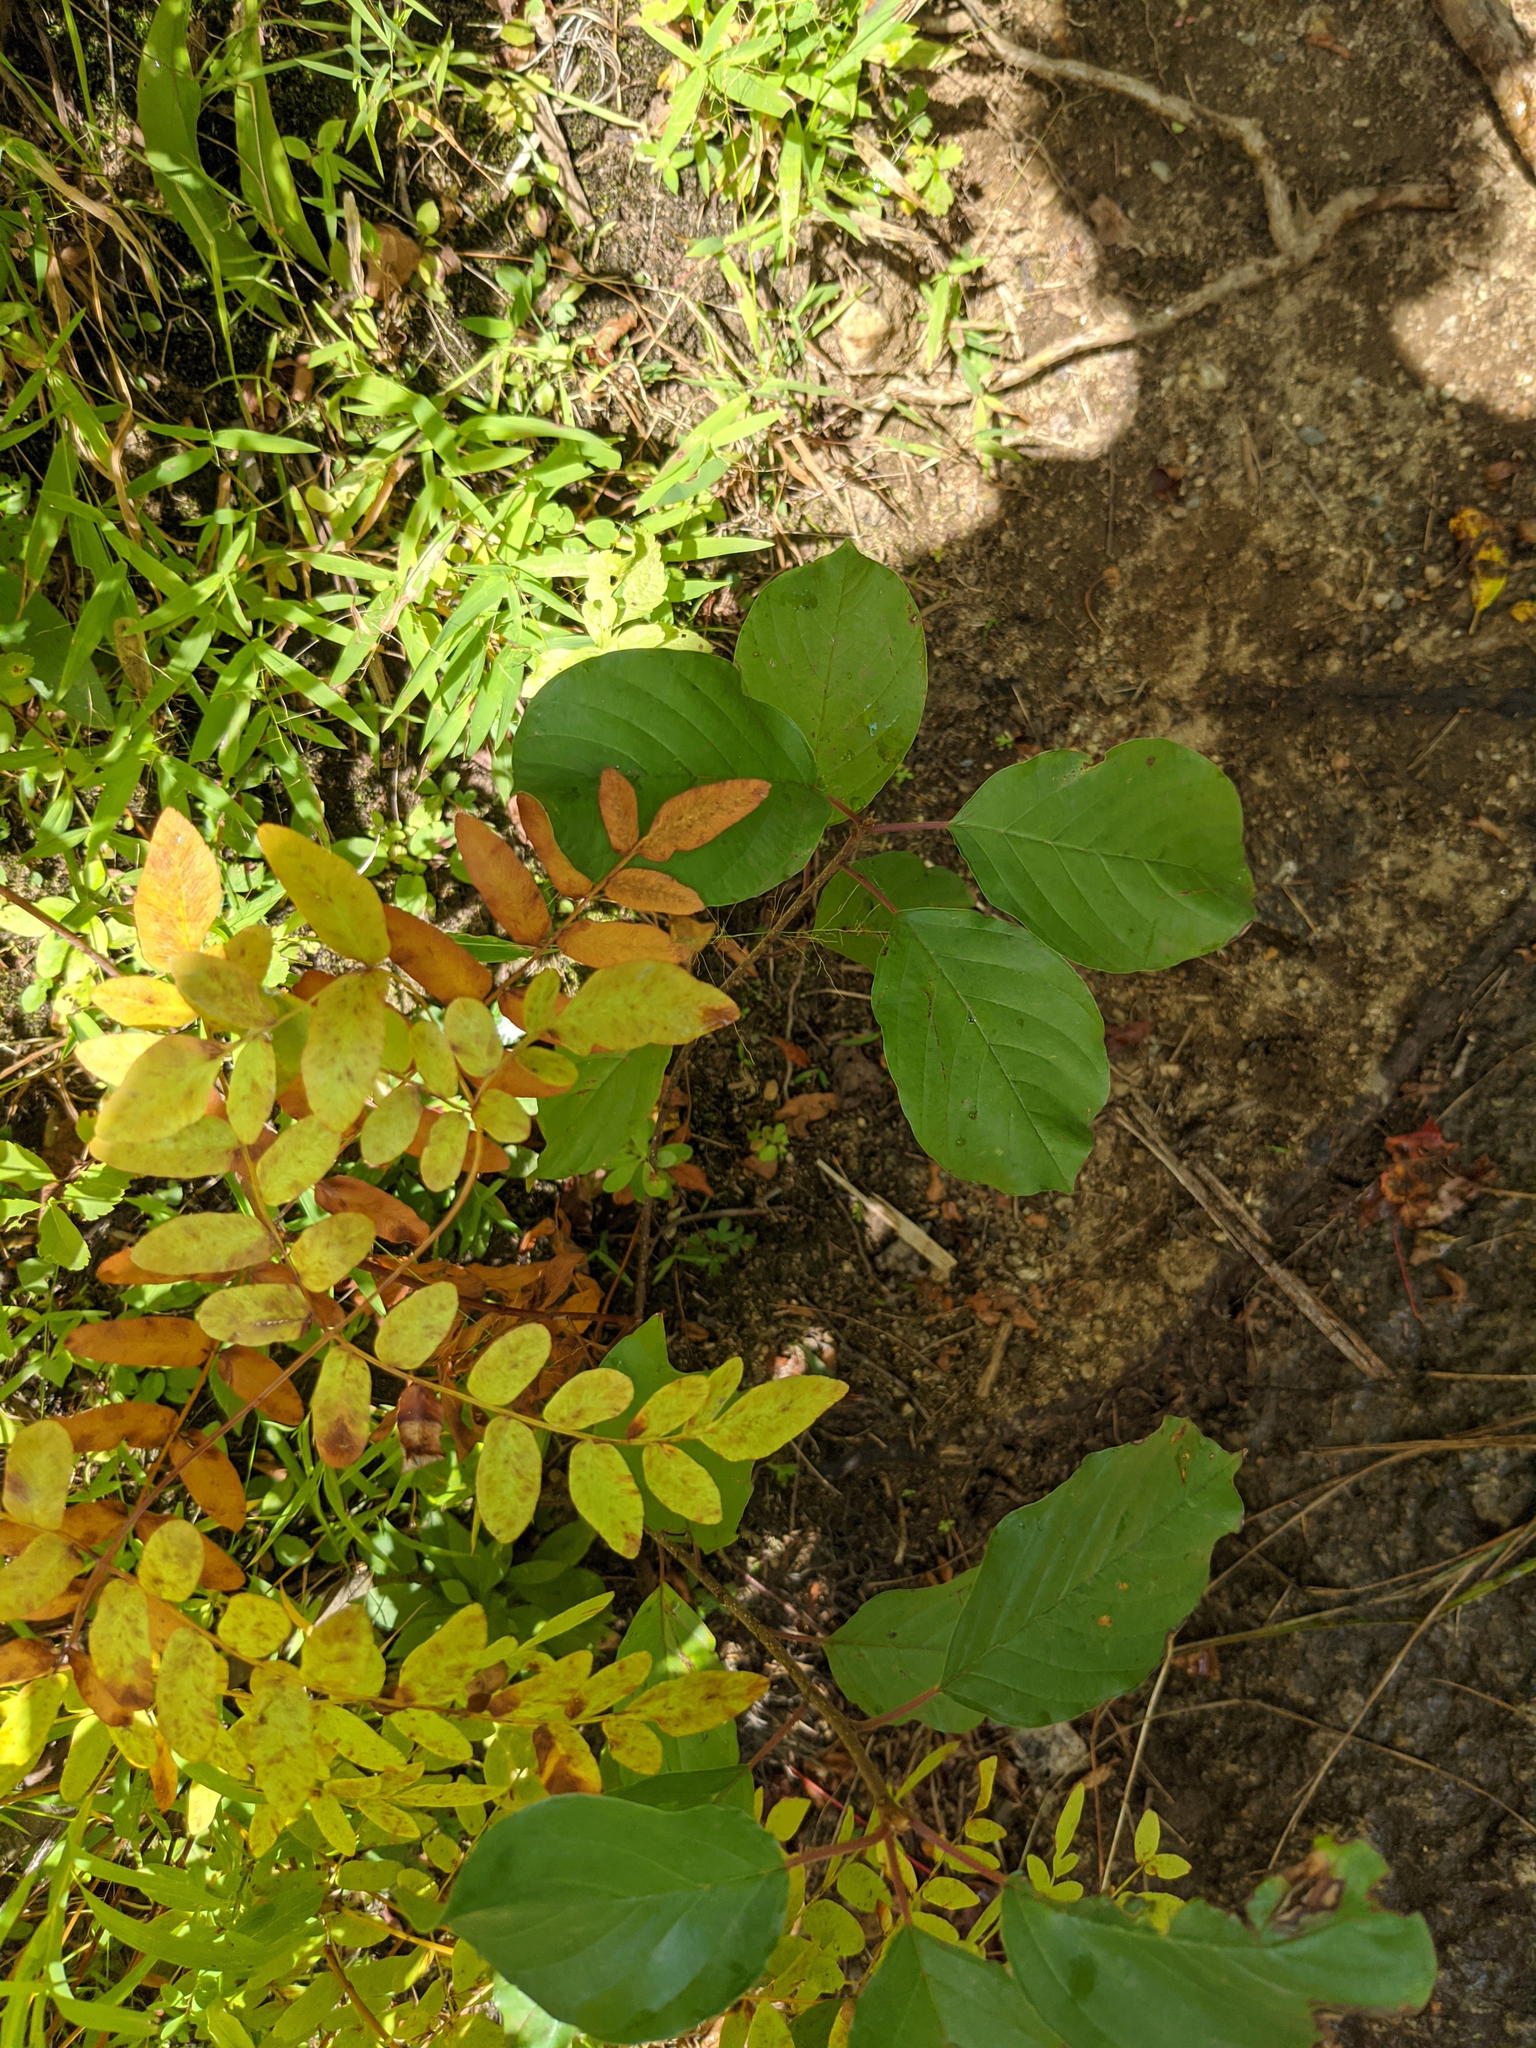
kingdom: Plantae
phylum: Tracheophyta
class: Polypodiopsida
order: Osmundales
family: Osmundaceae
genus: Osmunda
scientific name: Osmunda spectabilis
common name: American royal fern
